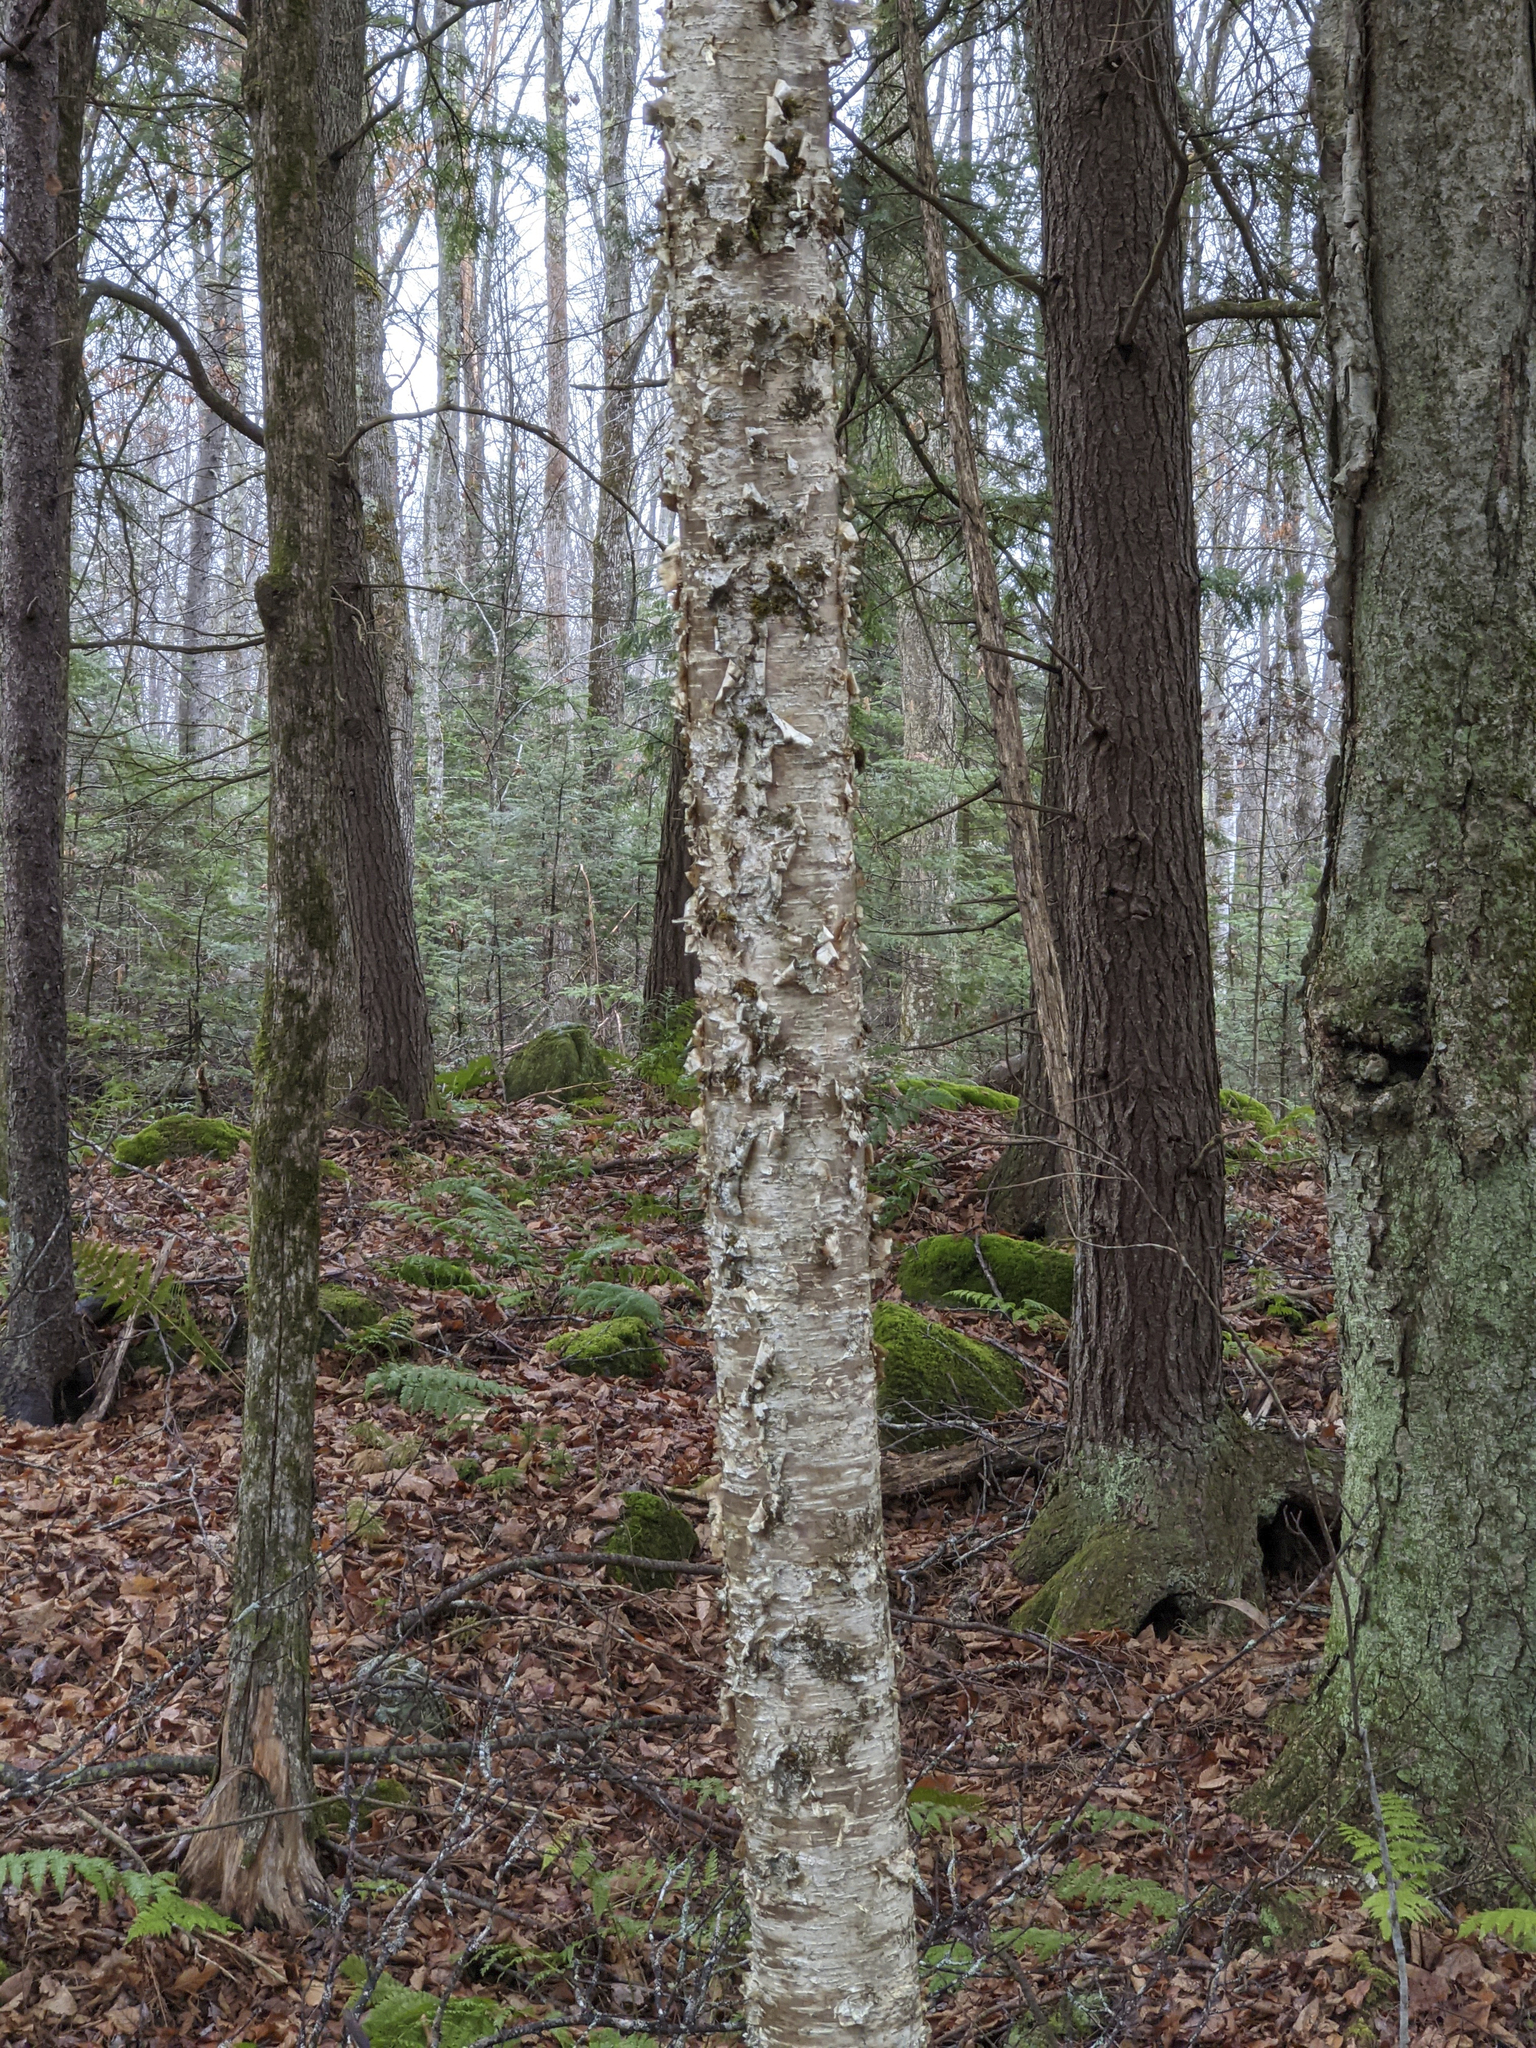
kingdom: Plantae
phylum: Tracheophyta
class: Magnoliopsida
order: Fagales
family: Betulaceae
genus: Betula
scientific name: Betula alleghaniensis
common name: Yellow birch
